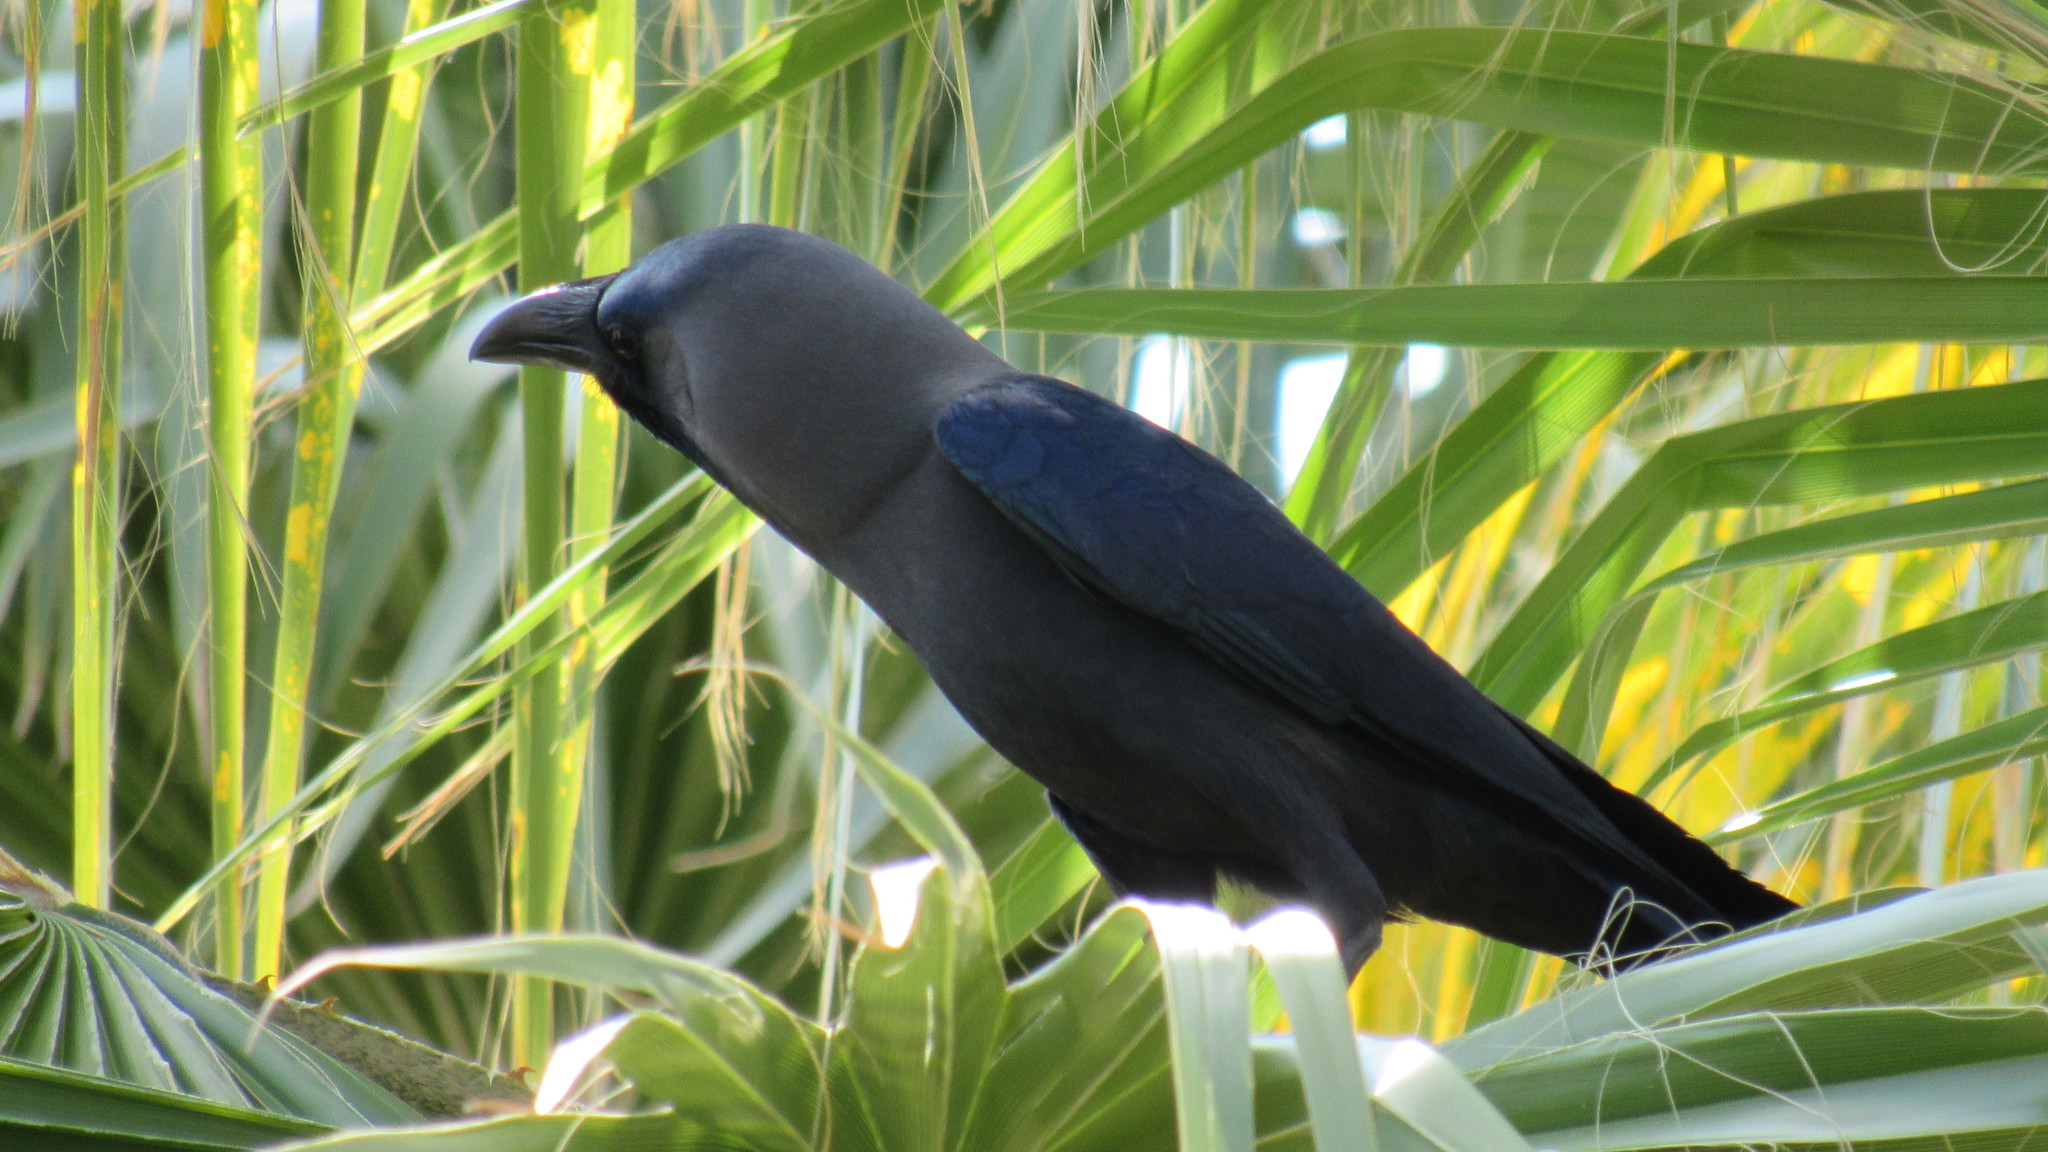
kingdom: Animalia
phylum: Chordata
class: Aves
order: Passeriformes
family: Corvidae
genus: Corvus
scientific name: Corvus splendens
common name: House crow
